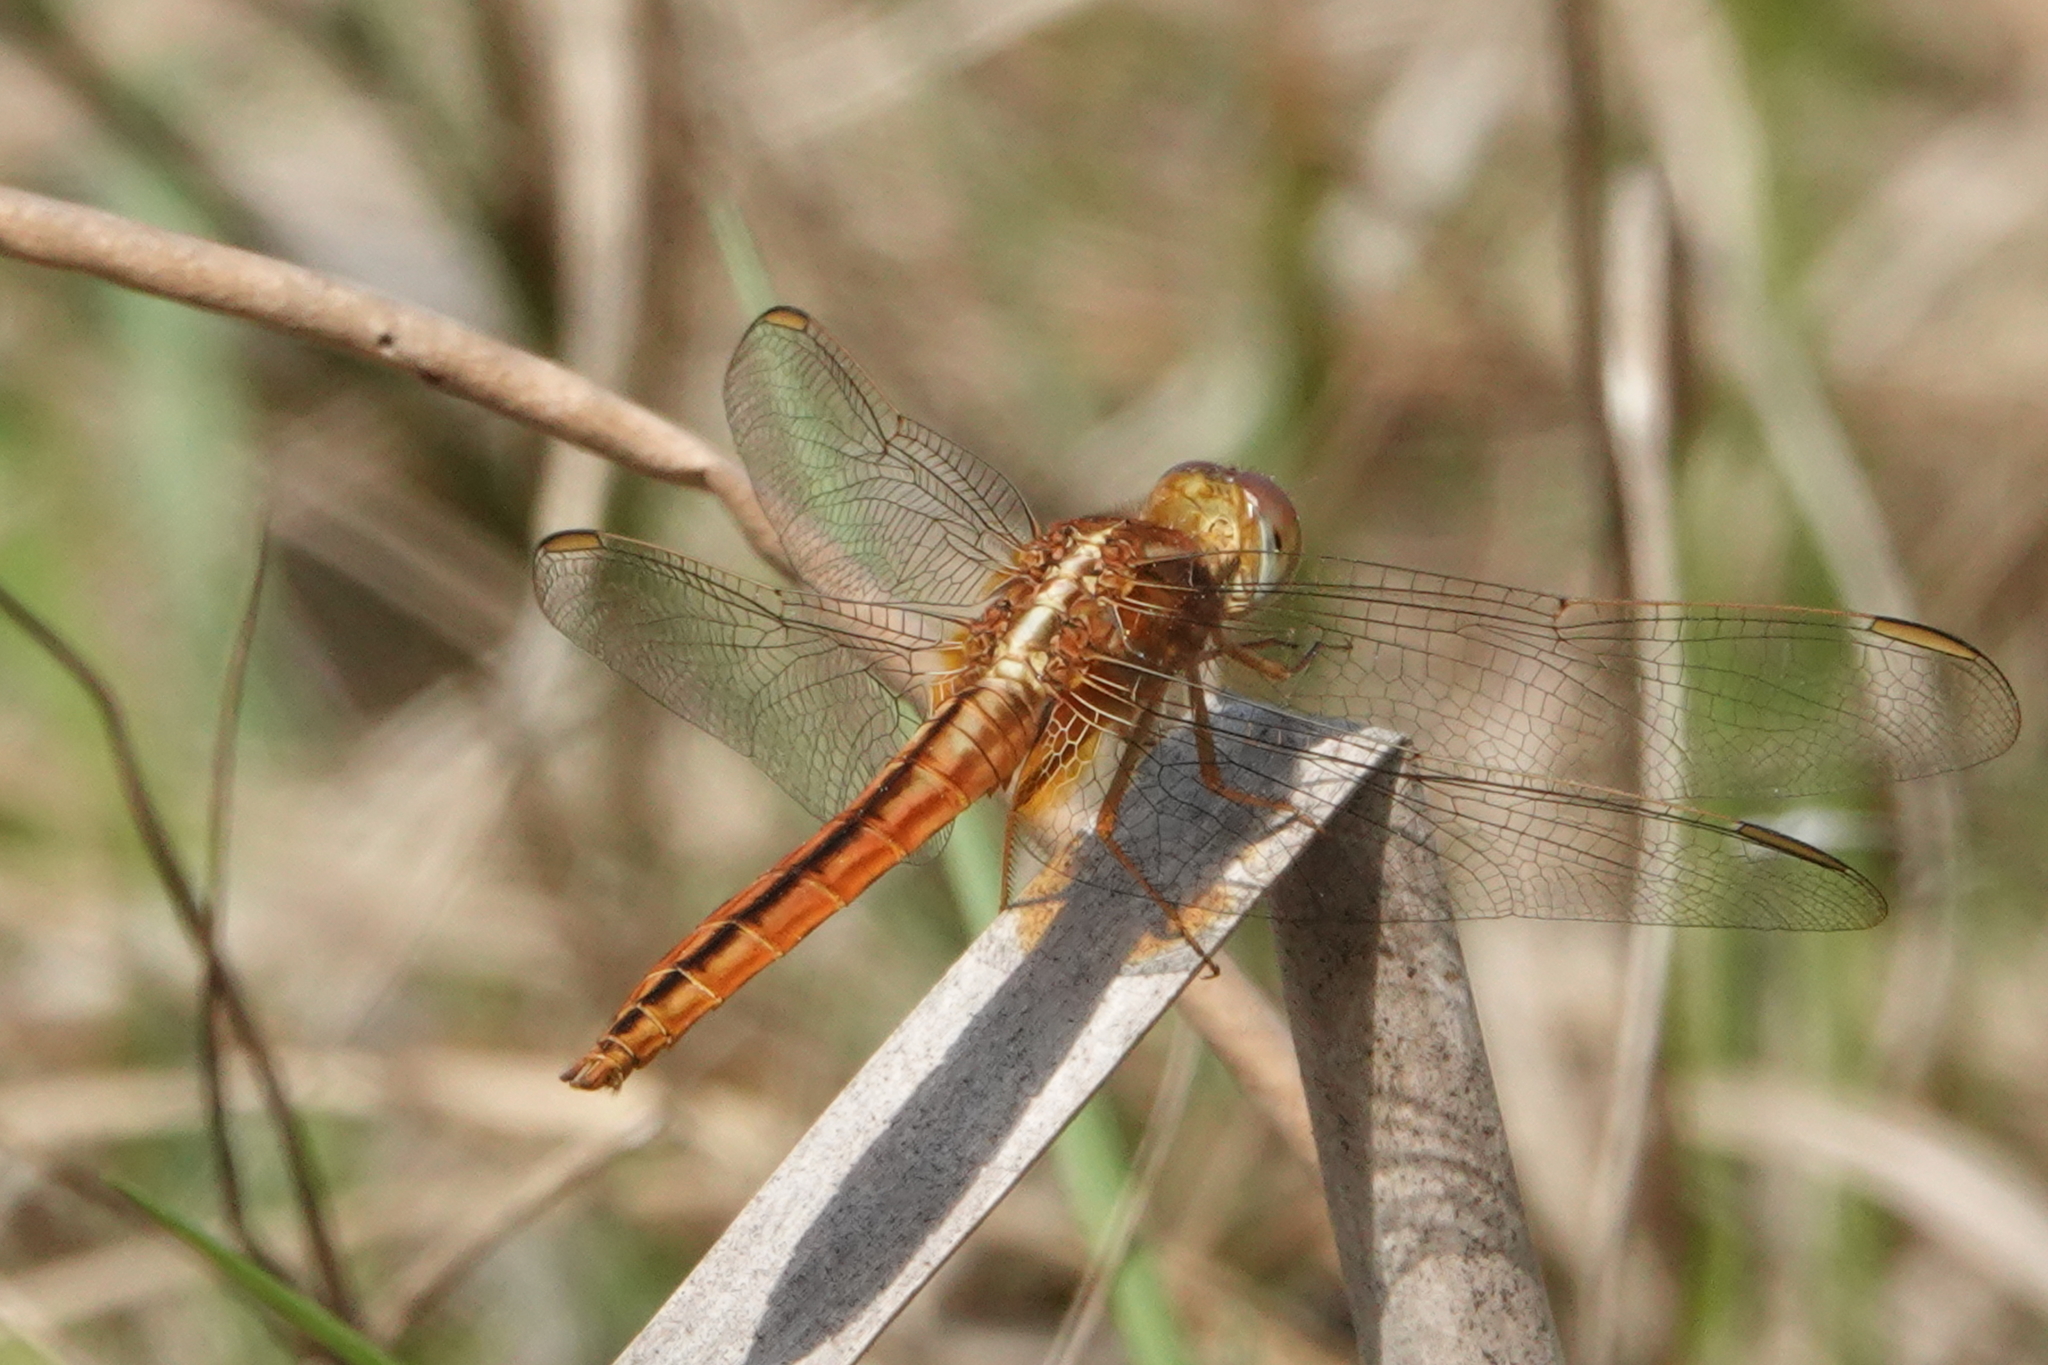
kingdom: Animalia
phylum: Arthropoda
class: Insecta
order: Odonata
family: Libellulidae
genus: Crocothemis
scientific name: Crocothemis servilia
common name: Scarlet skimmer
